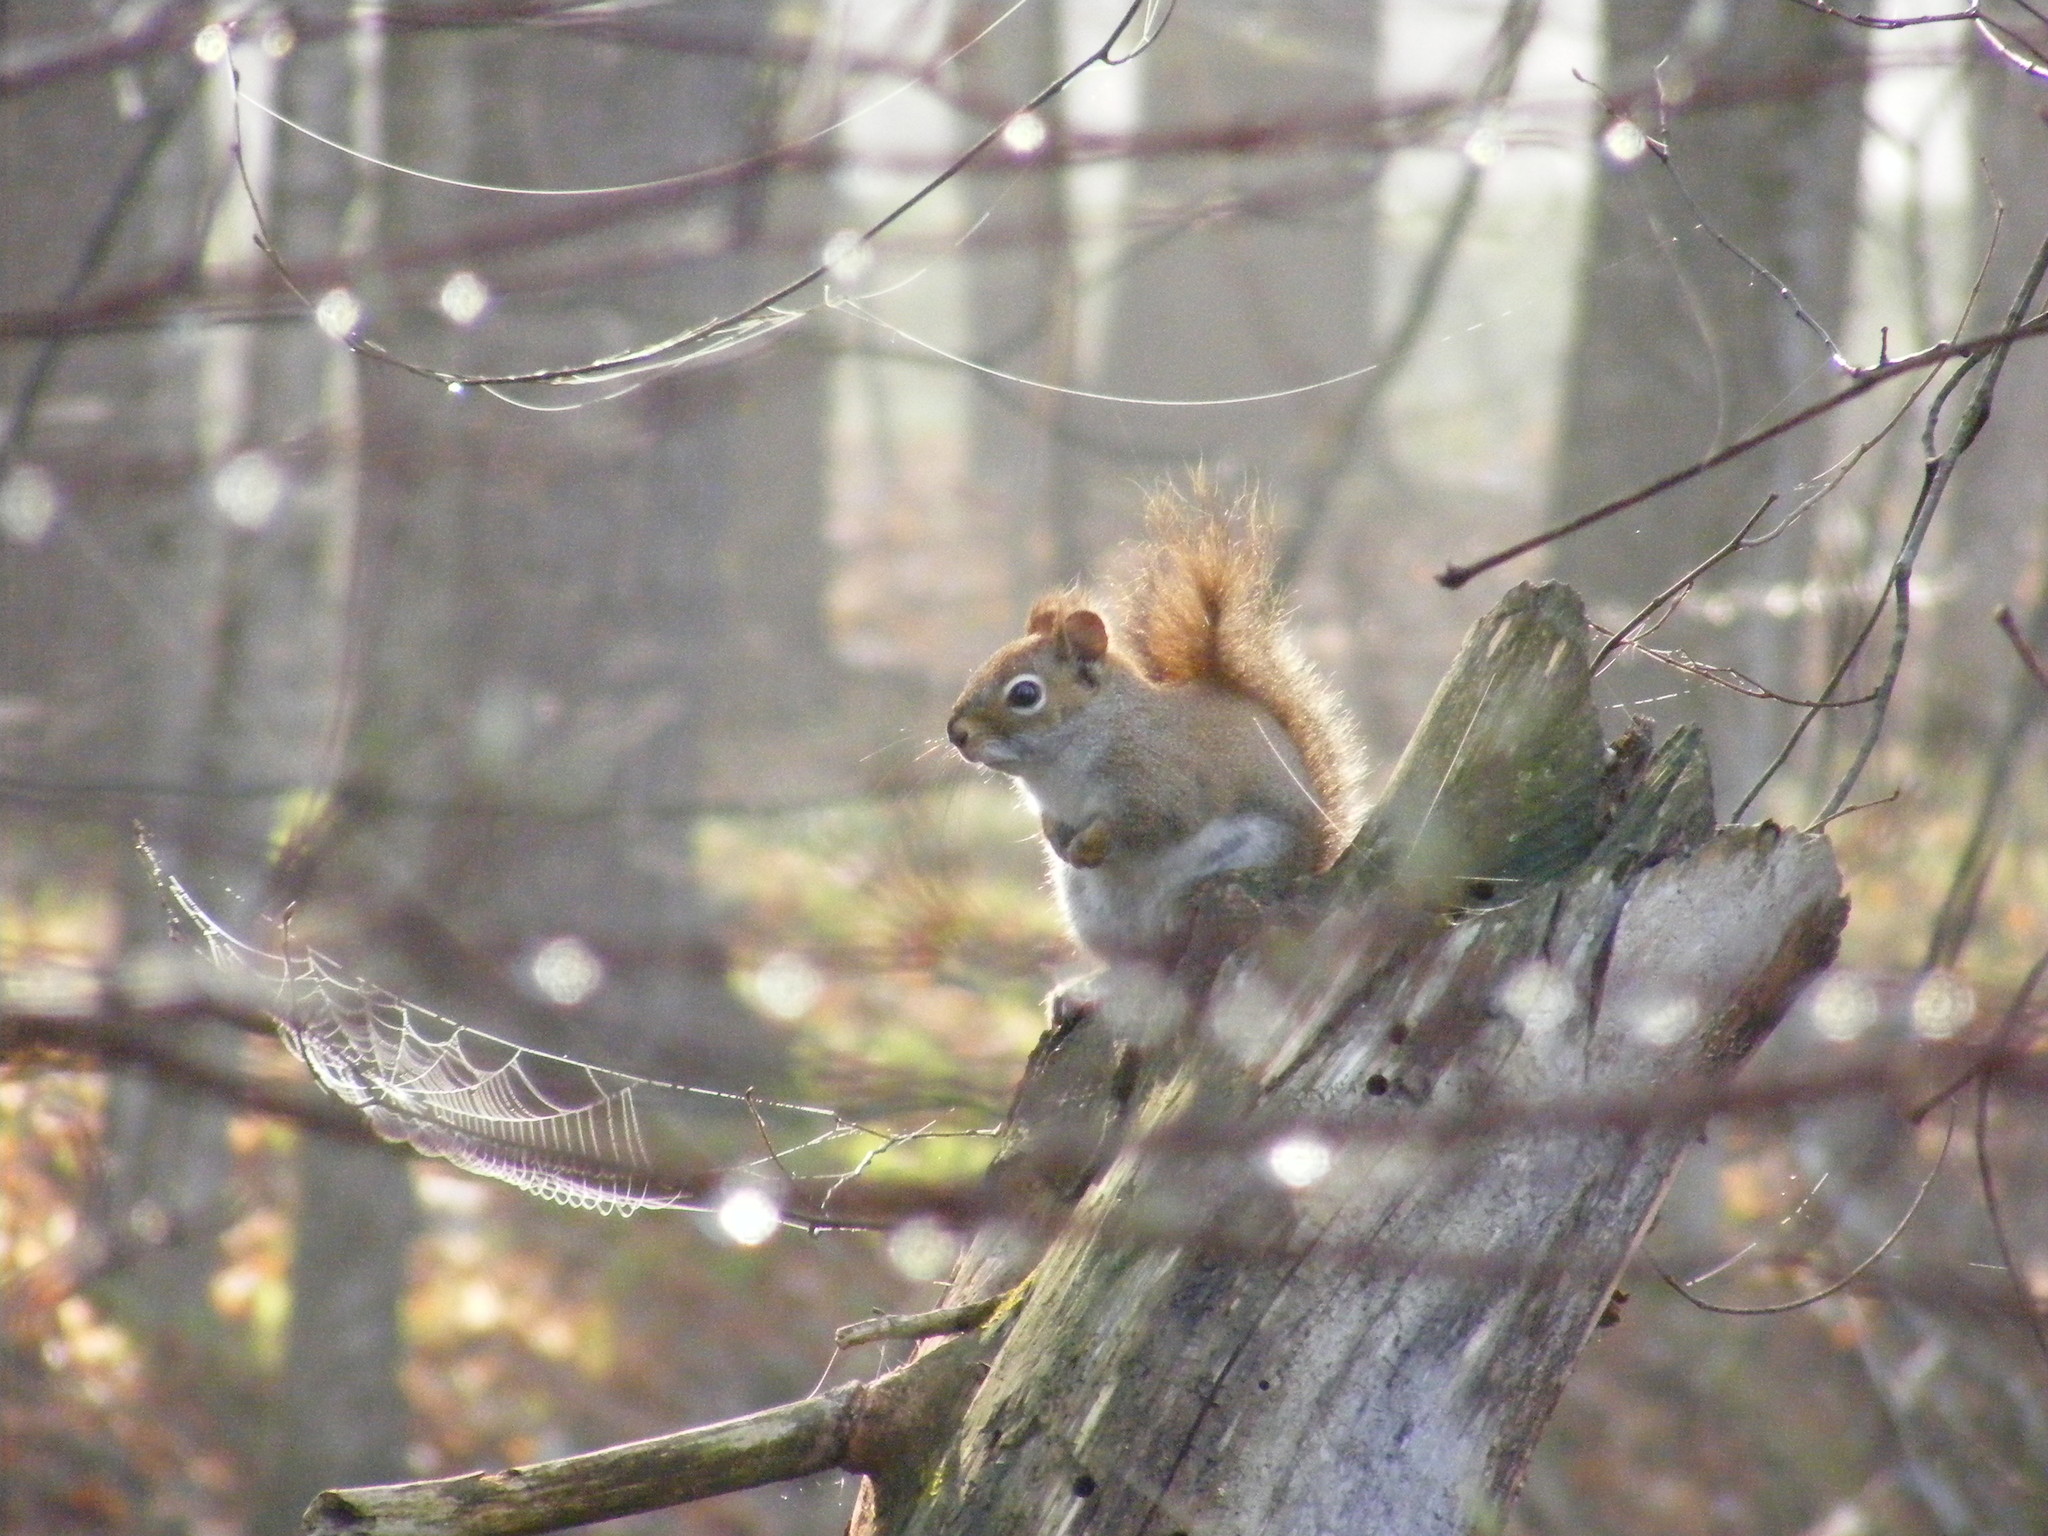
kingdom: Animalia
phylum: Chordata
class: Mammalia
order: Rodentia
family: Sciuridae
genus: Tamiasciurus
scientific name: Tamiasciurus hudsonicus
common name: Red squirrel
